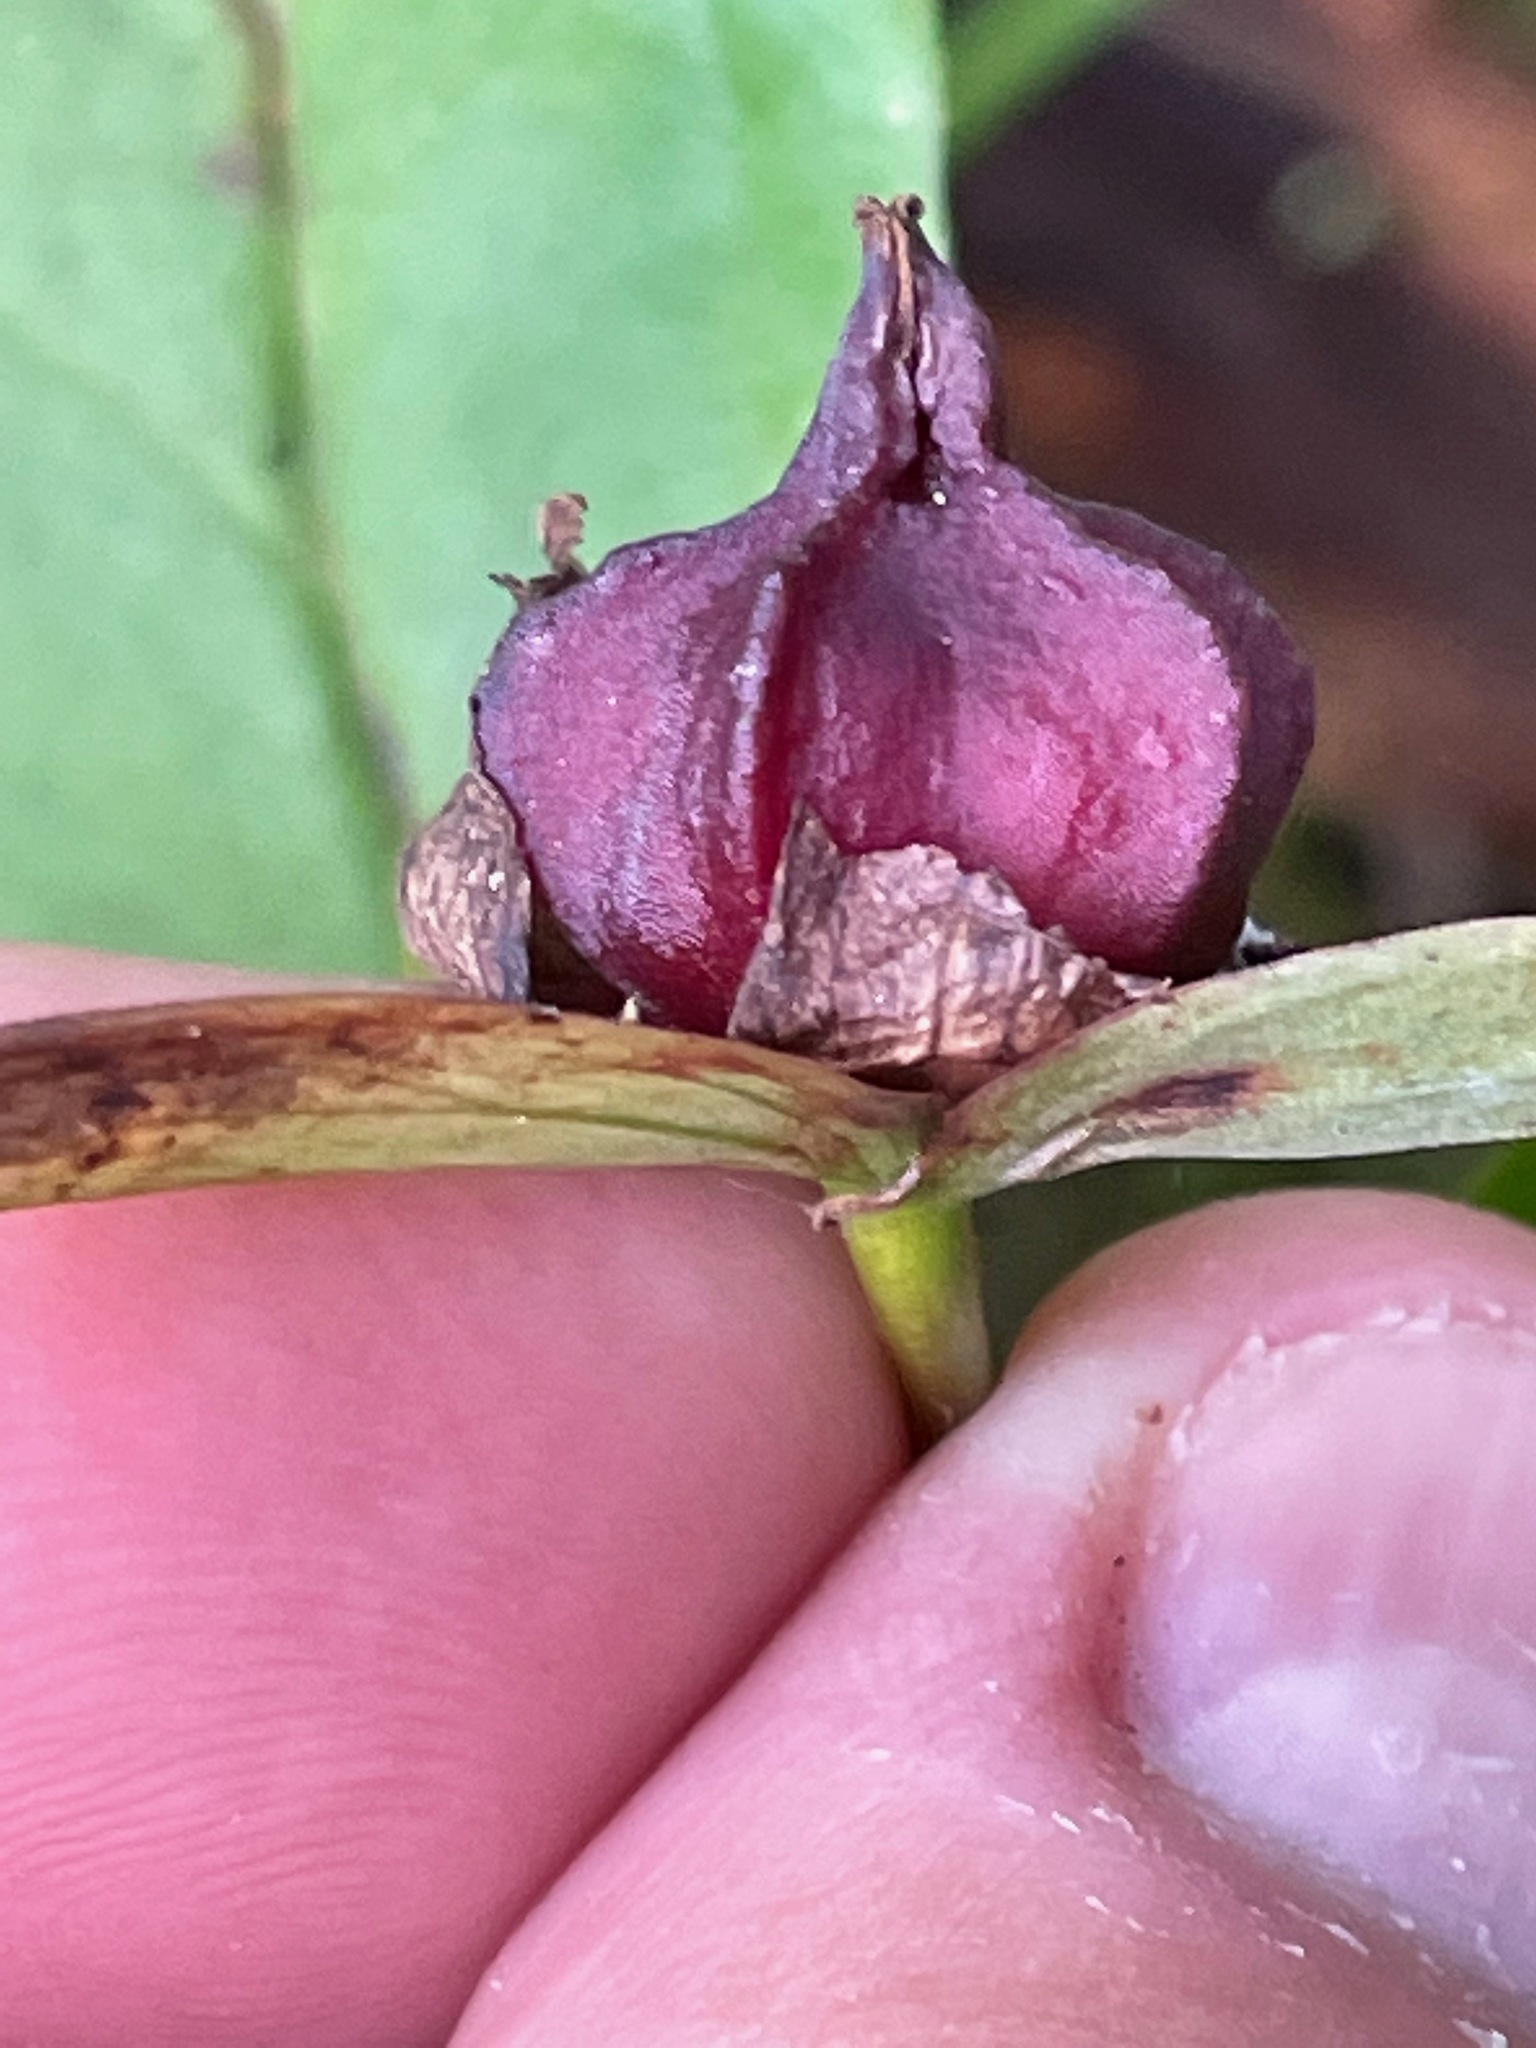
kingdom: Plantae
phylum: Tracheophyta
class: Liliopsida
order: Liliales
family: Melanthiaceae
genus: Trillium
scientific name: Trillium erectum
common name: Purple trillium
